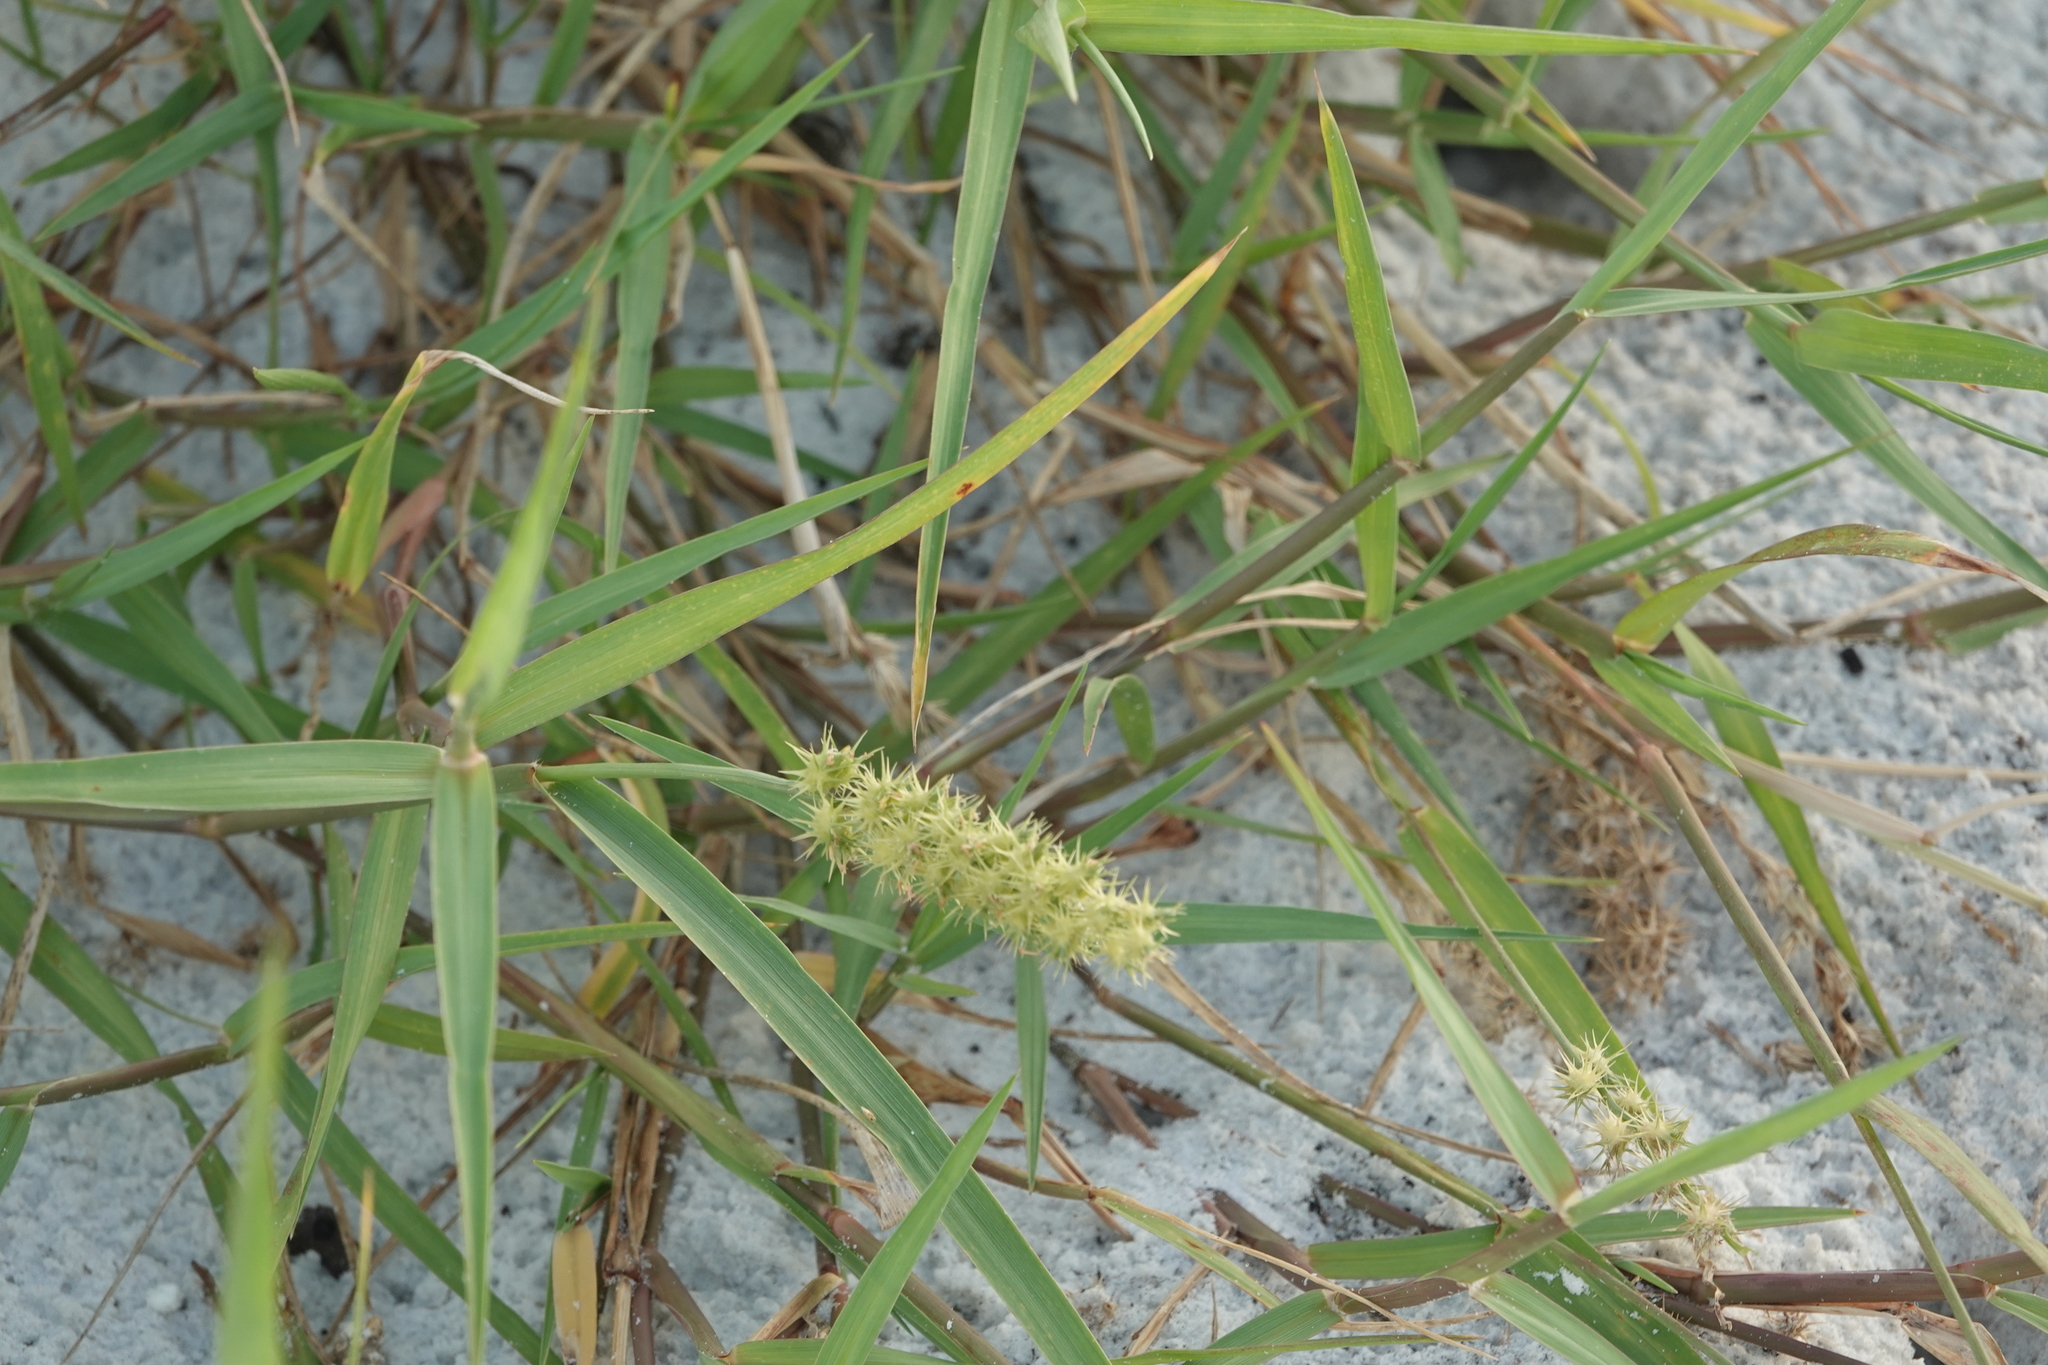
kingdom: Plantae
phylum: Tracheophyta
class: Liliopsida
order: Poales
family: Poaceae
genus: Cenchrus
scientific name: Cenchrus spinifex
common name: Coast sandbur
